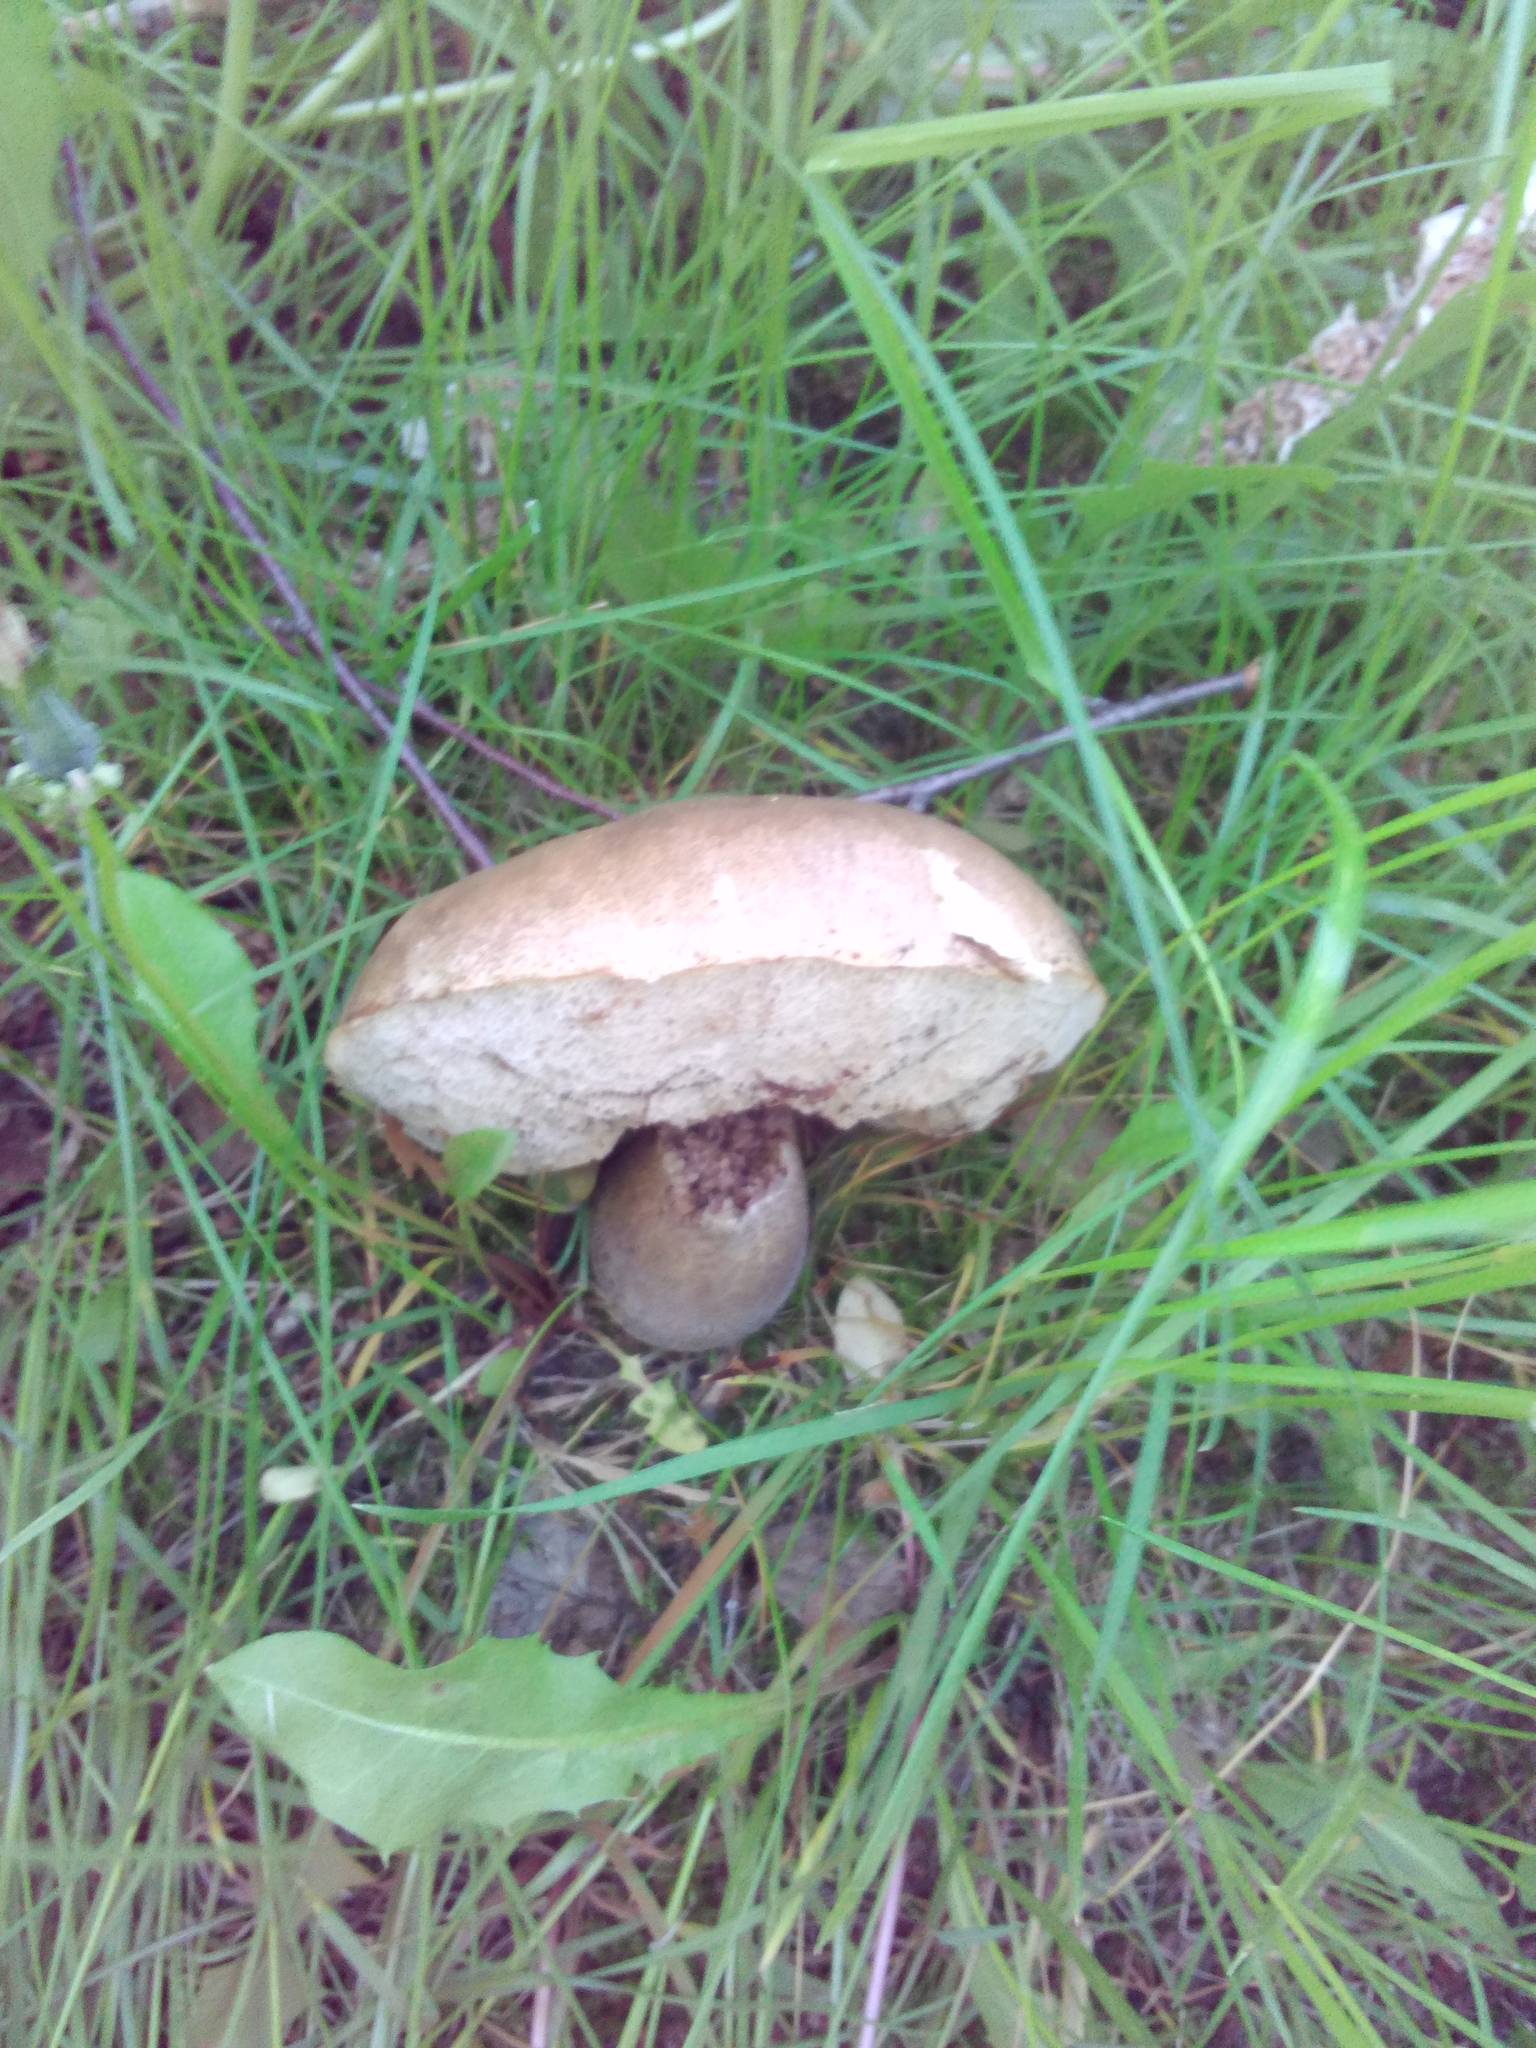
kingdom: Fungi
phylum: Basidiomycota
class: Agaricomycetes
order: Boletales
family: Boletaceae
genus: Leccinum
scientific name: Leccinum scabrum
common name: Blushing bolete
